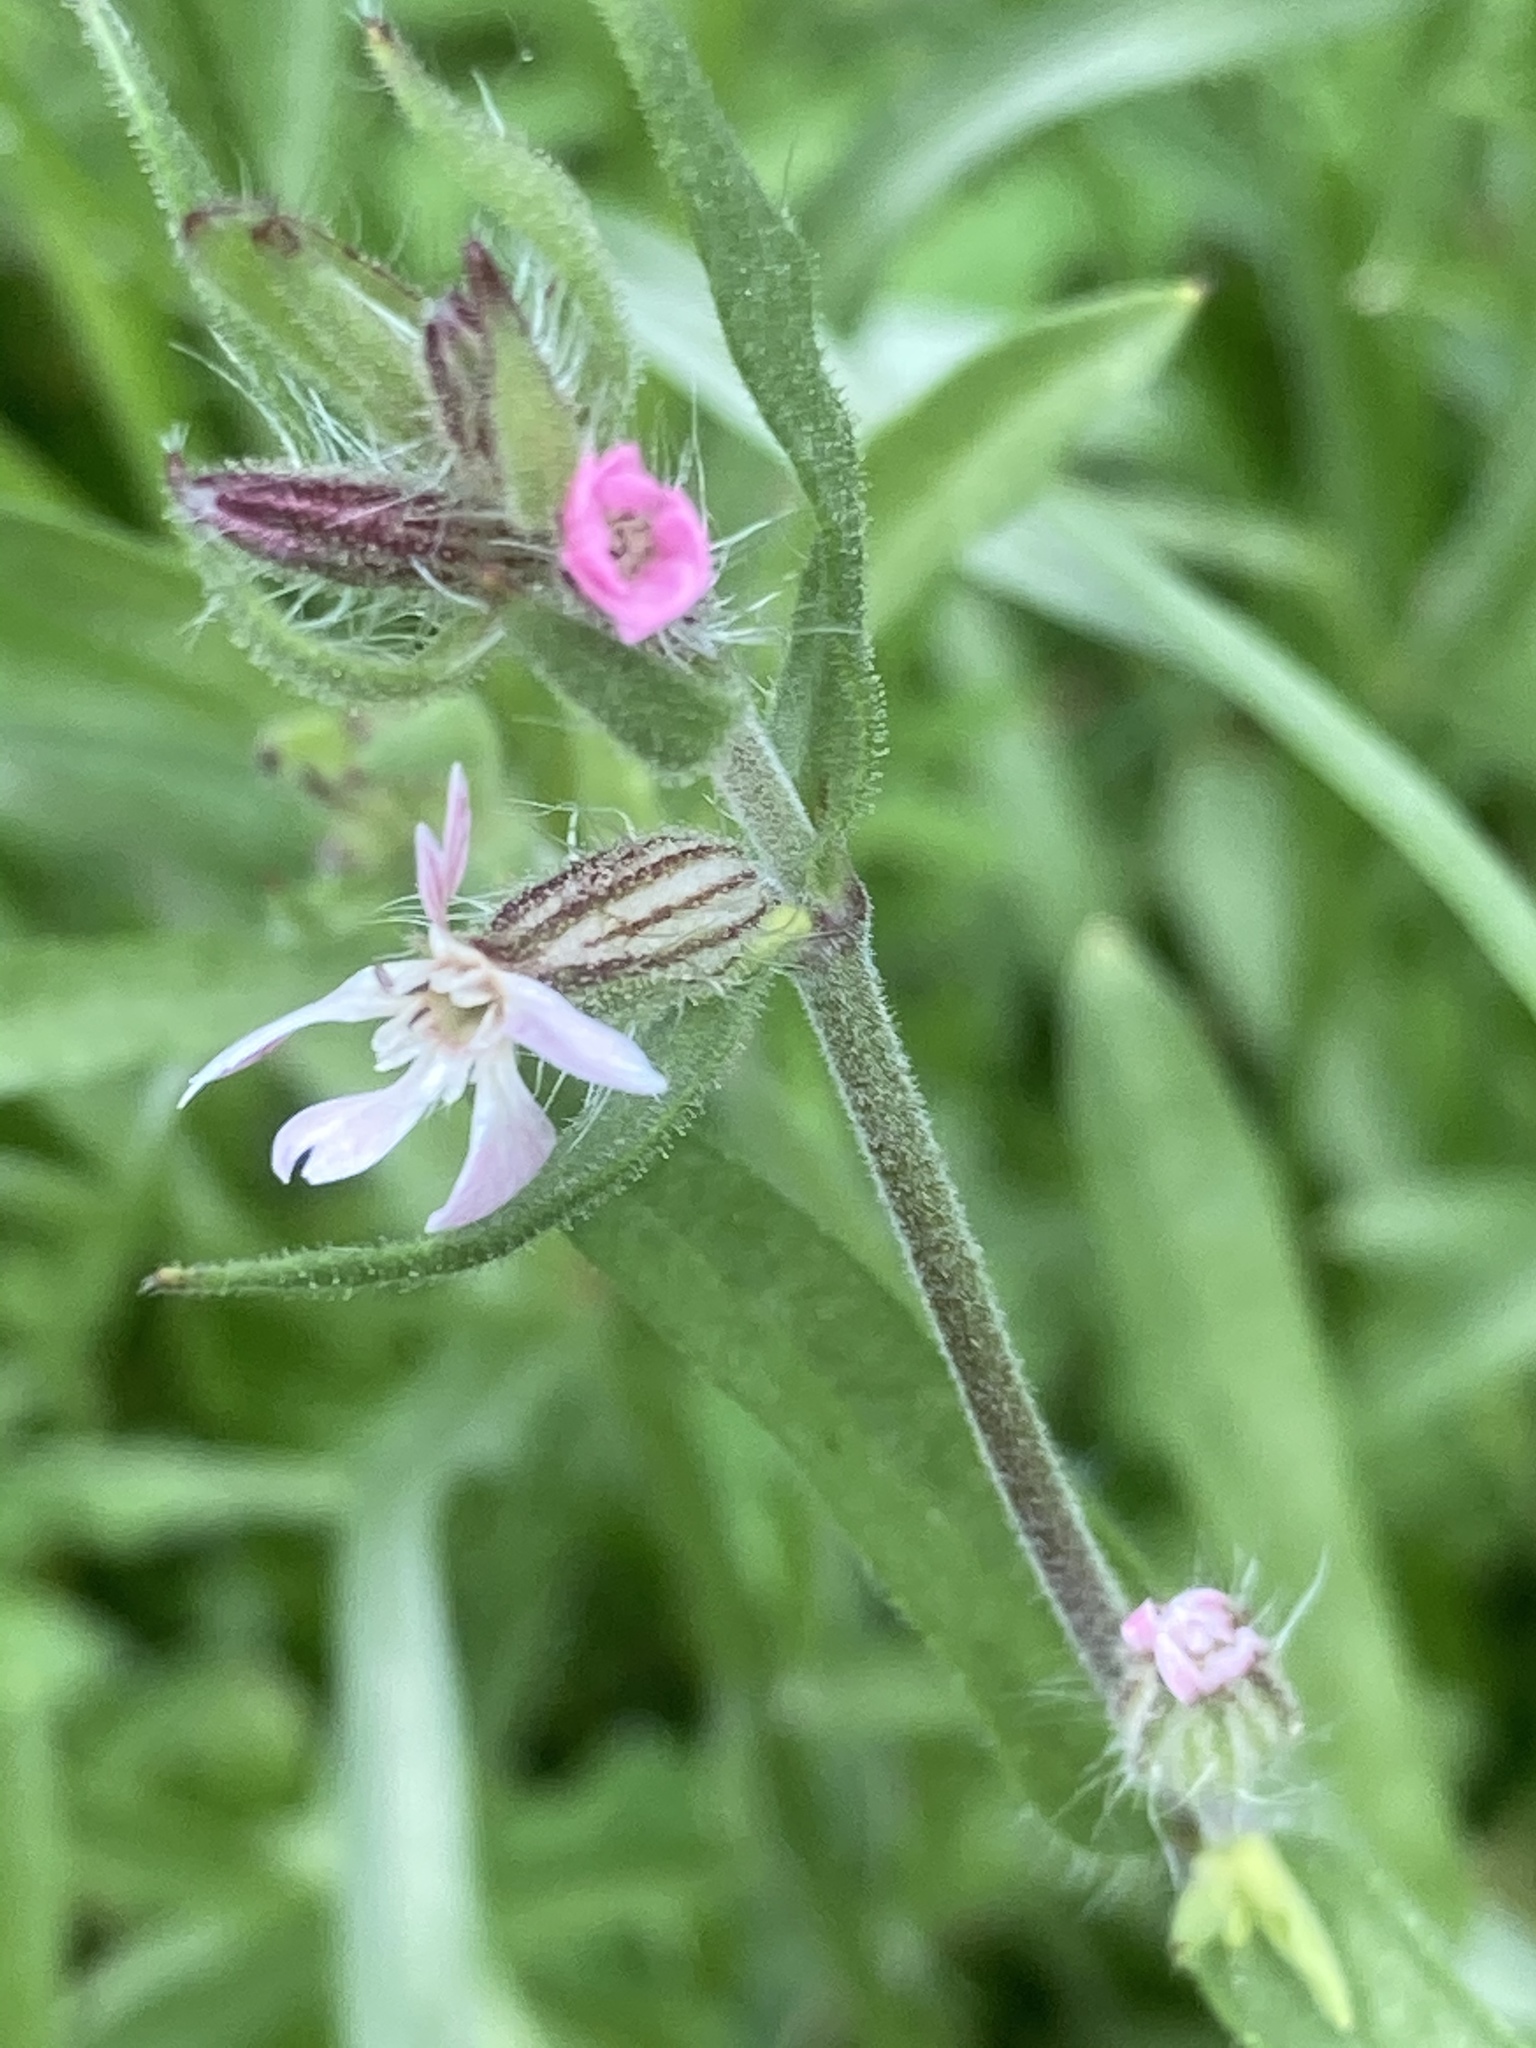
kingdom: Plantae
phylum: Tracheophyta
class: Magnoliopsida
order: Caryophyllales
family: Caryophyllaceae
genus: Silene
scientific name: Silene gallica
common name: Small-flowered catchfly
